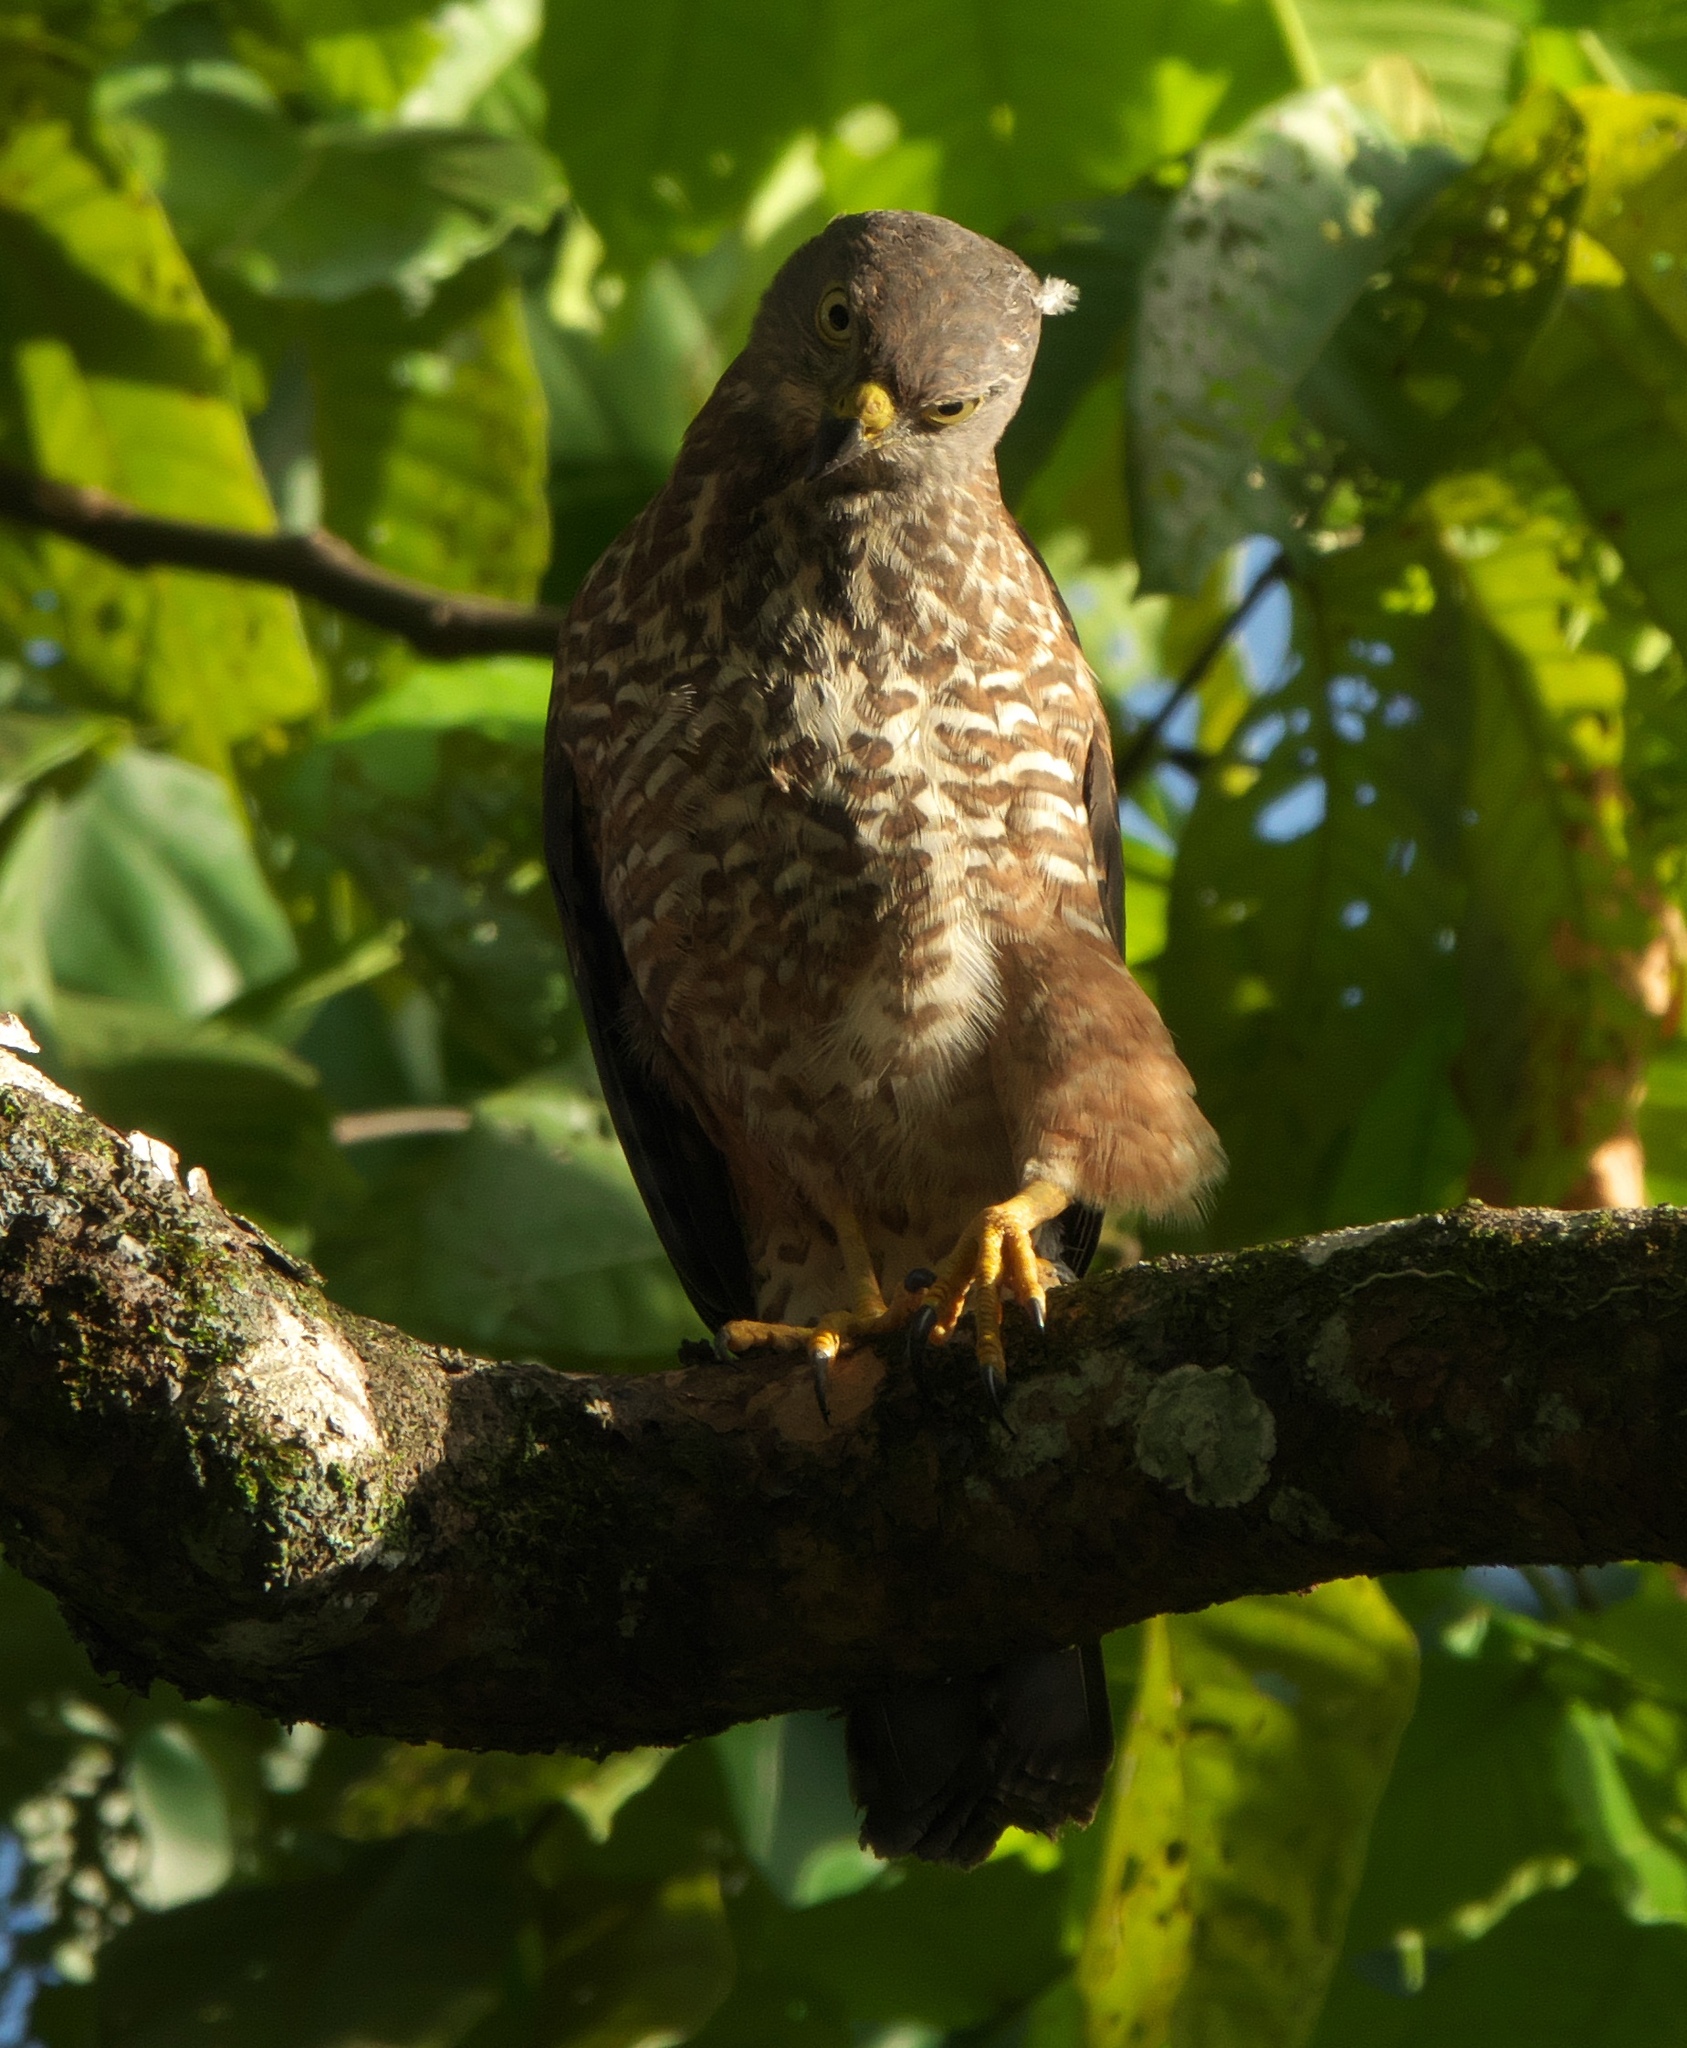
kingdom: Animalia
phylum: Chordata
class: Aves
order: Accipitriformes
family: Accipitridae
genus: Accipiter
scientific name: Accipiter rufitorques
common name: Fiji goshawk
